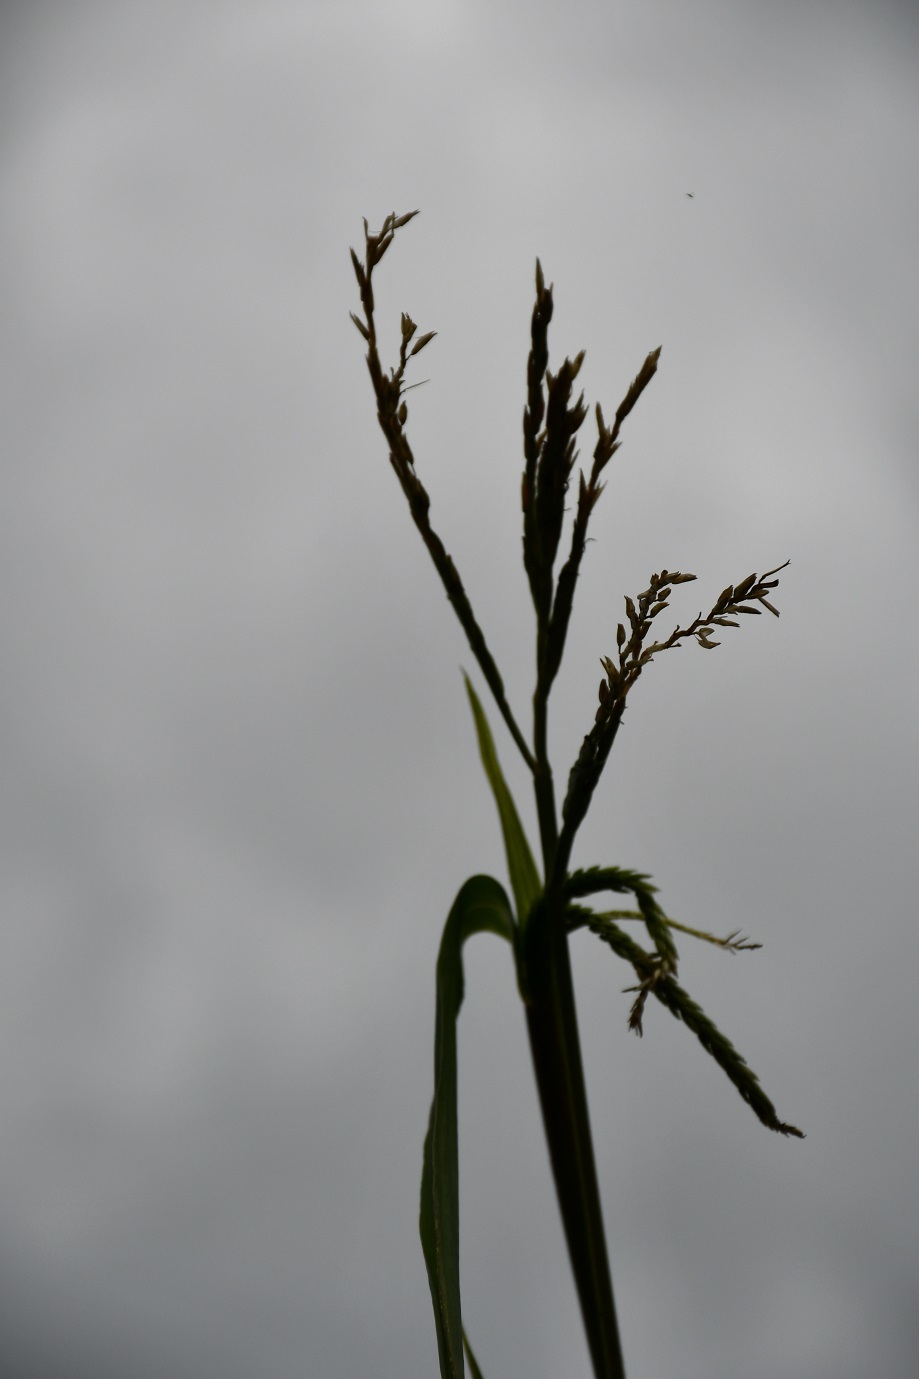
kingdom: Plantae
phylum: Tracheophyta
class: Liliopsida
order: Poales
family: Poaceae
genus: Tripsacum
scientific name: Tripsacum dactyloides
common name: Buffalo-grass
